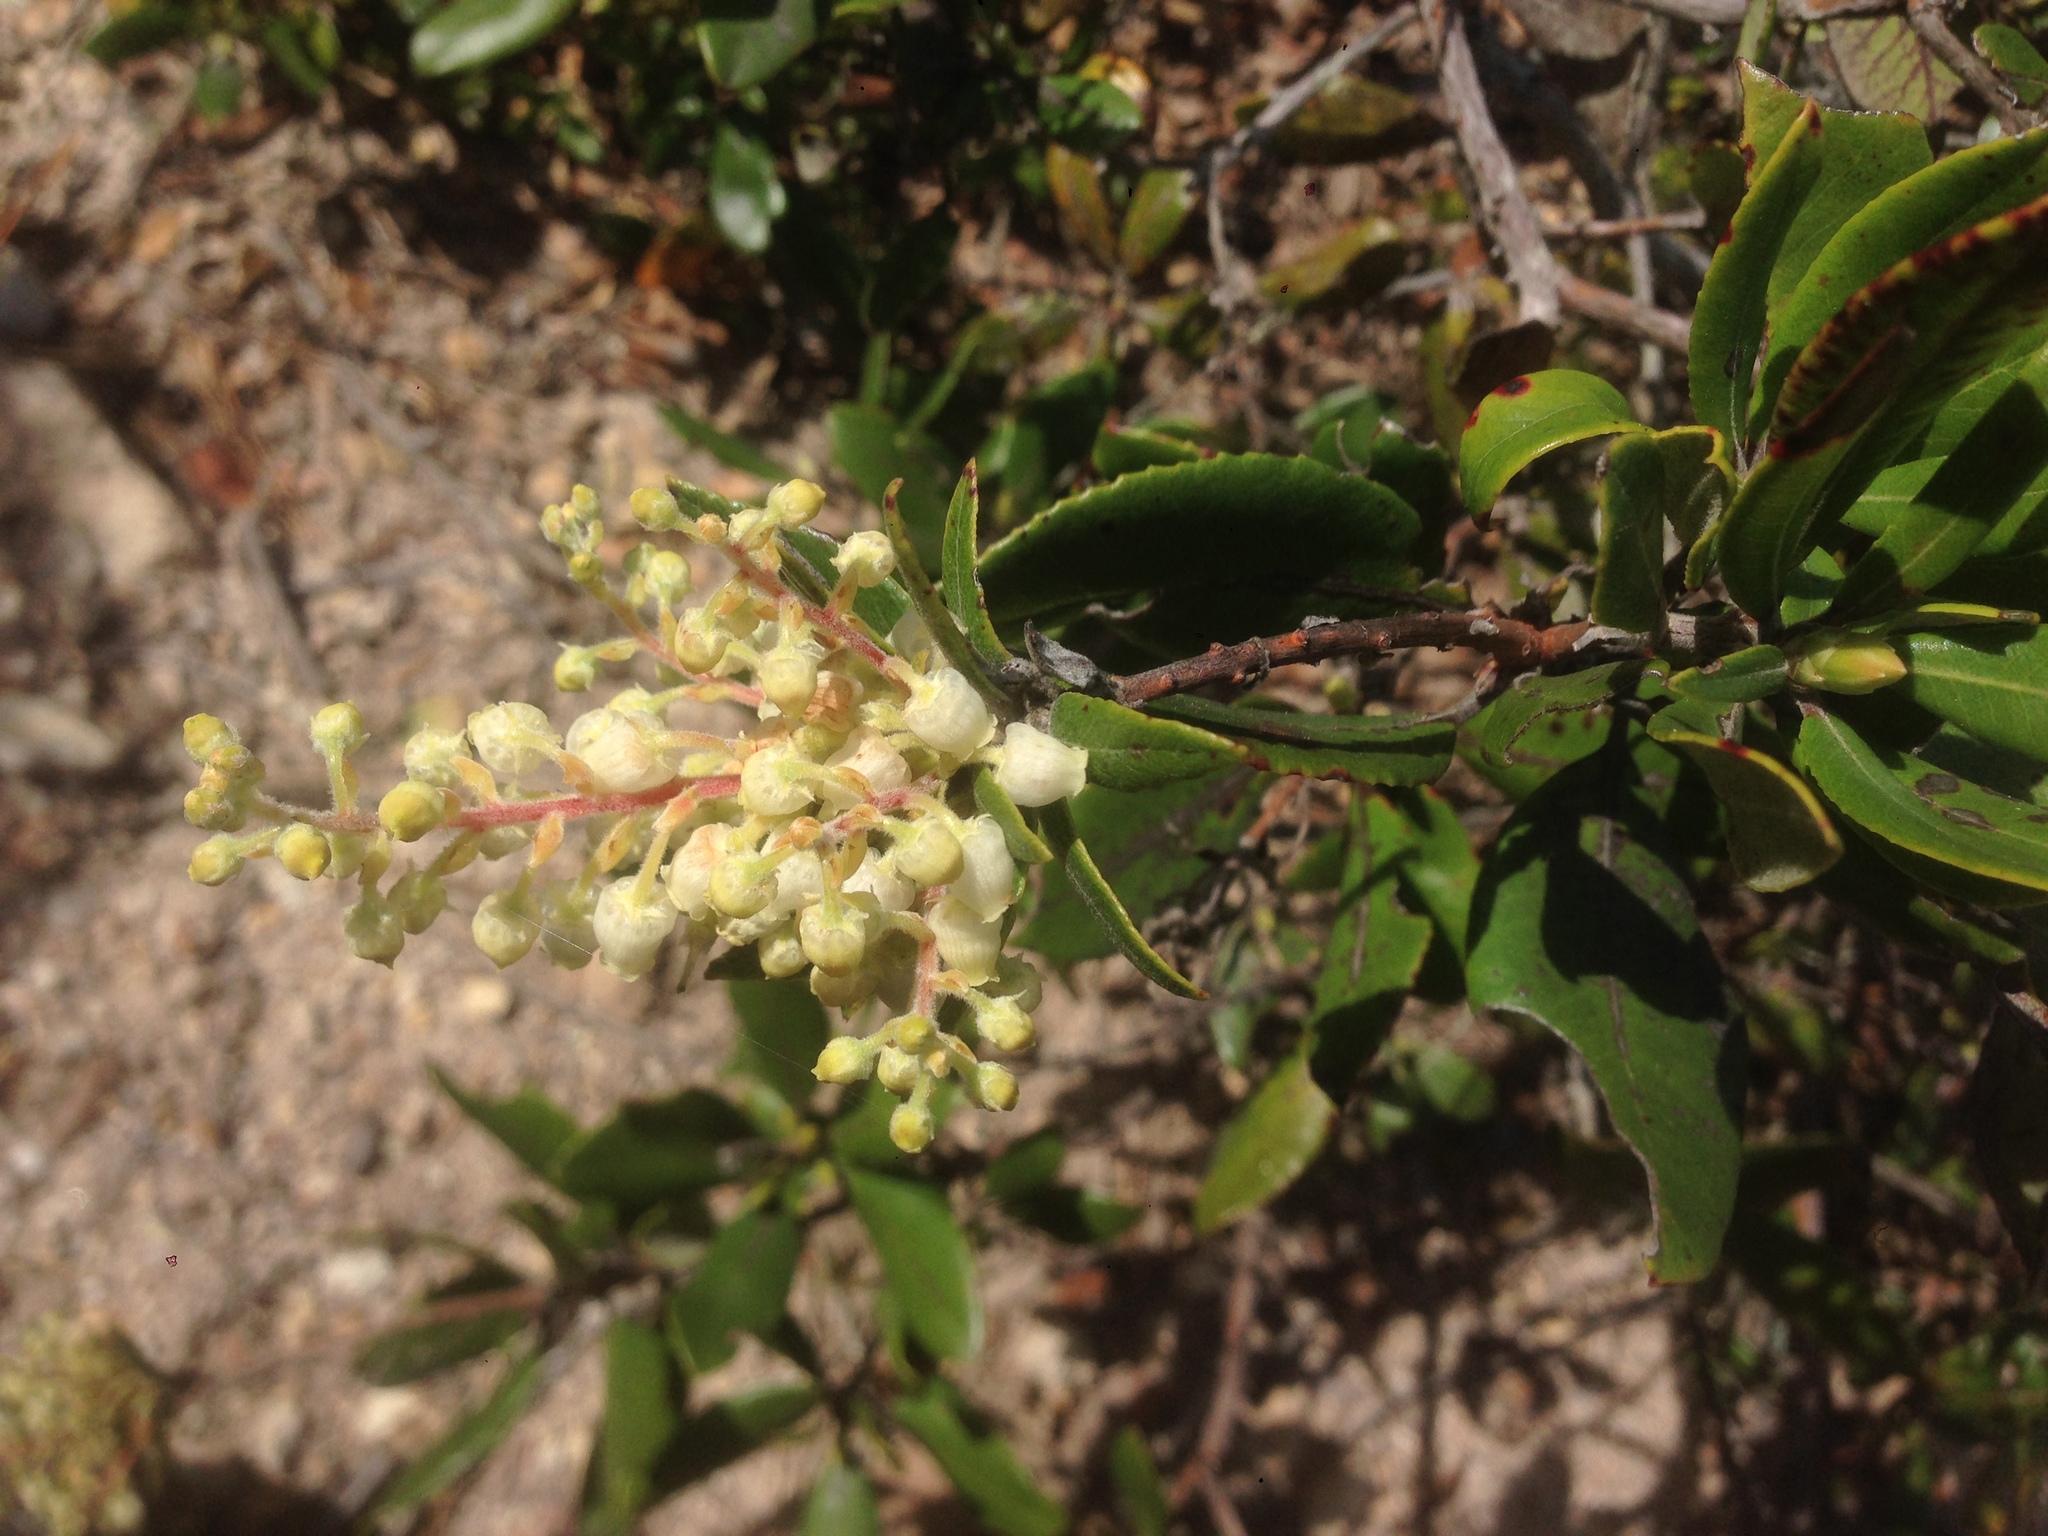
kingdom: Plantae
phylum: Tracheophyta
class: Magnoliopsida
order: Ericales
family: Ericaceae
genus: Comarostaphylis
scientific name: Comarostaphylis diversifolia
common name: Summer-holly
